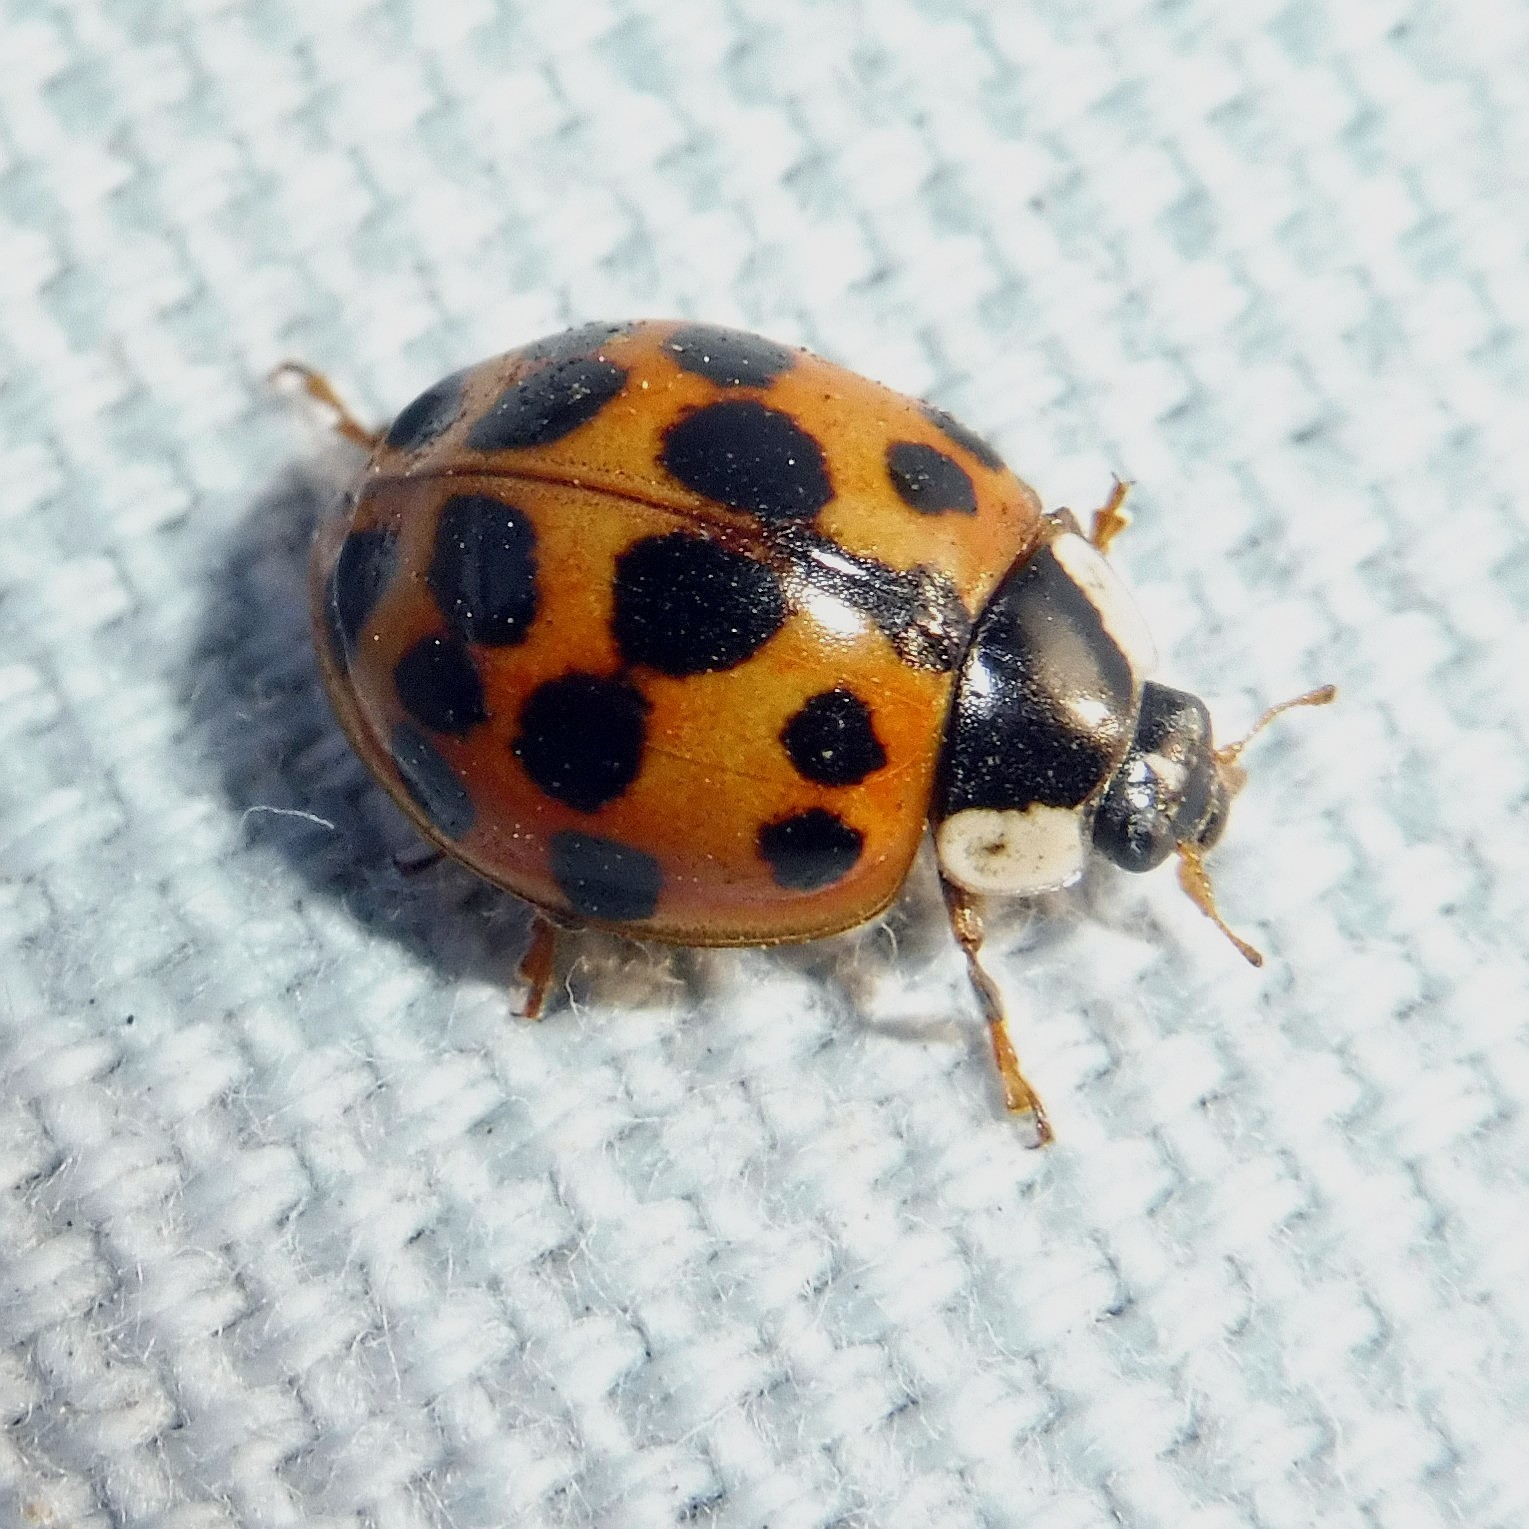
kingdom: Animalia
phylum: Arthropoda
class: Insecta
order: Coleoptera
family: Coccinellidae
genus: Harmonia
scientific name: Harmonia axyridis
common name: Harlequin ladybird
